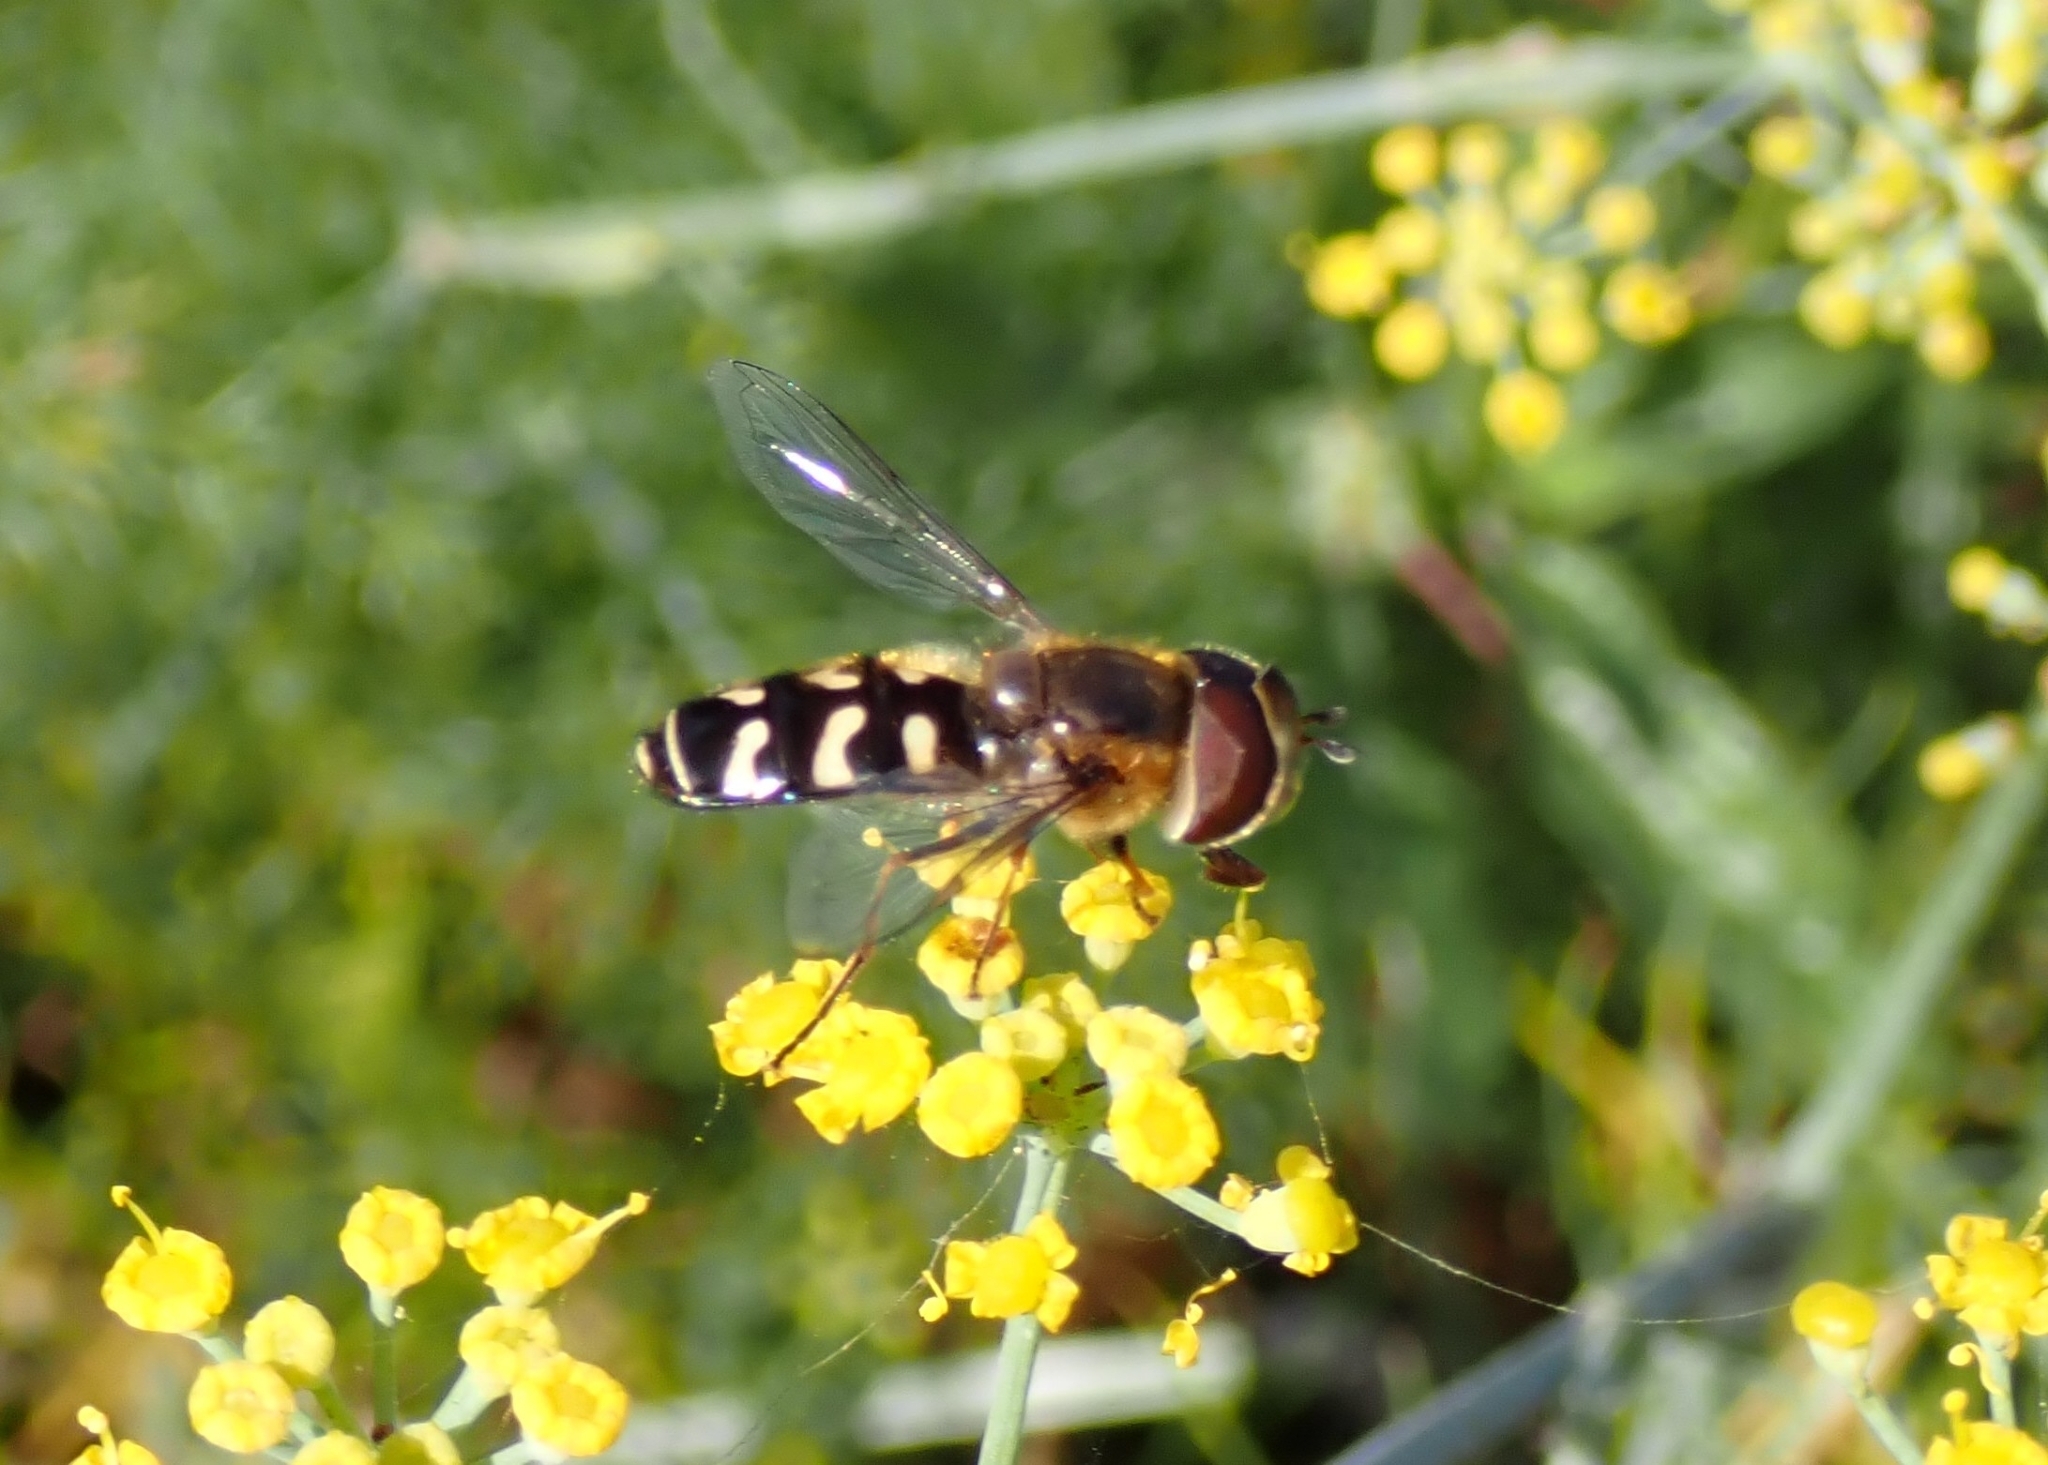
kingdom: Animalia
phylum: Arthropoda
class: Insecta
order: Diptera
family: Syrphidae
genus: Scaeva
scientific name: Scaeva pyrastri
